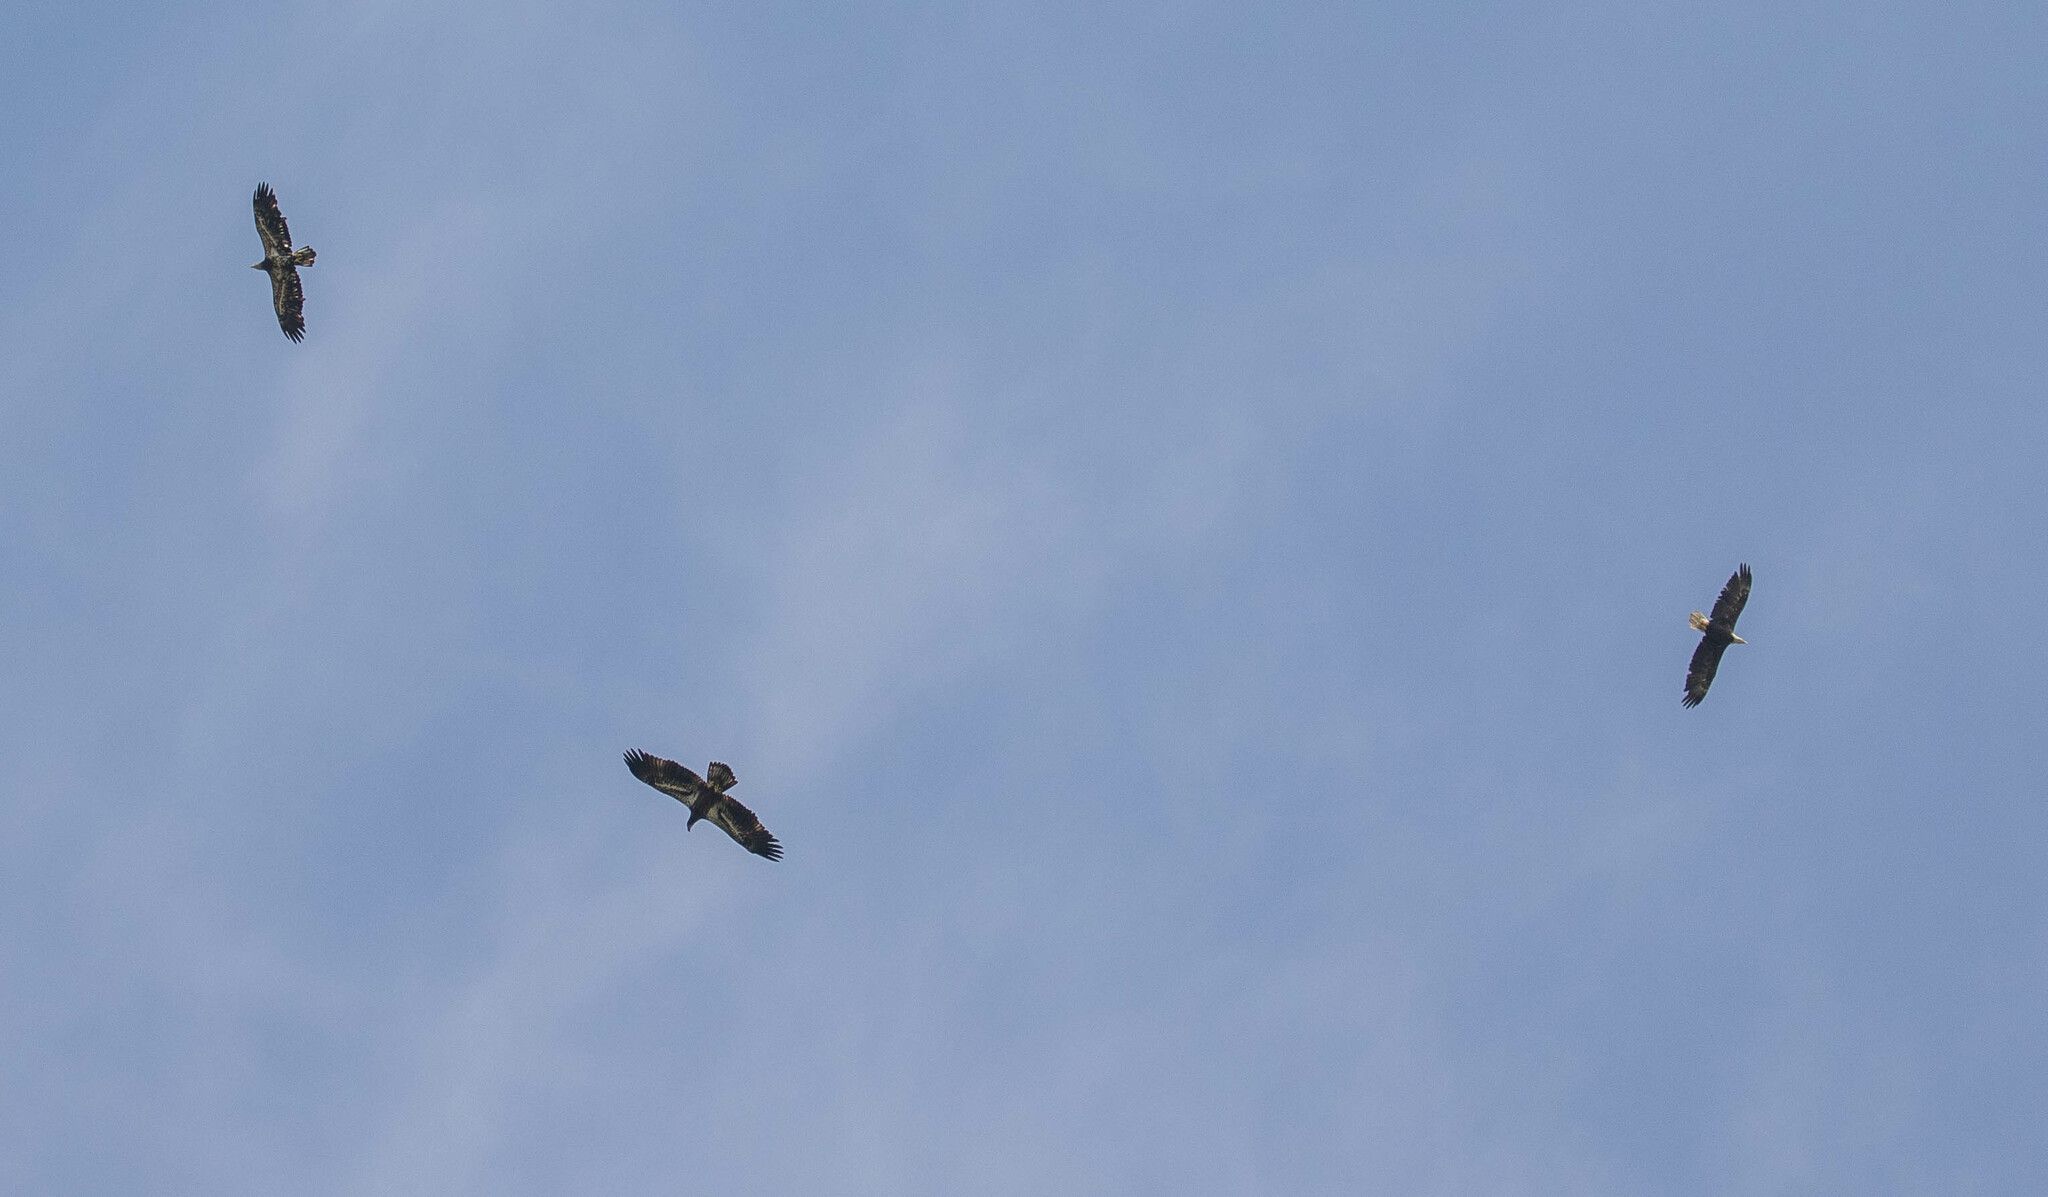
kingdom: Animalia
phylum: Chordata
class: Aves
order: Accipitriformes
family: Accipitridae
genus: Haliaeetus
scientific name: Haliaeetus leucocephalus
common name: Bald eagle
